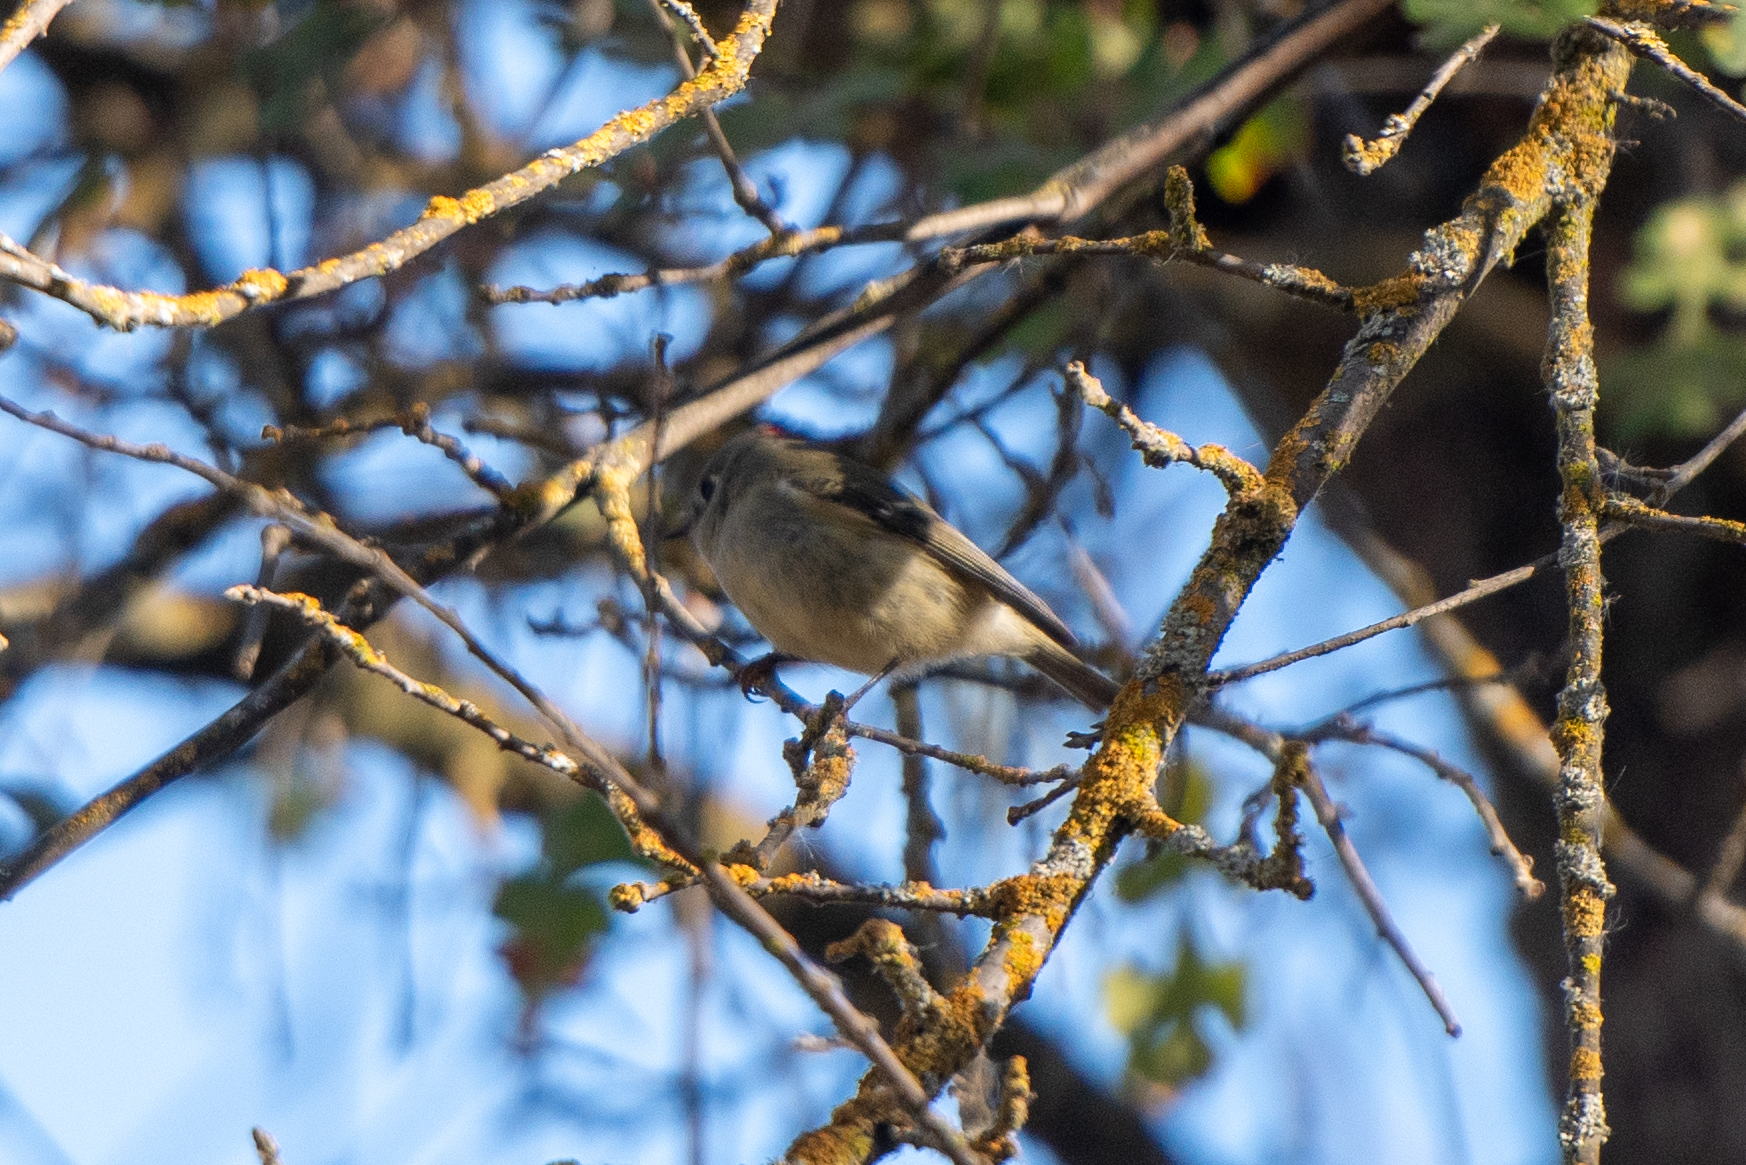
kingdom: Animalia
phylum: Chordata
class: Aves
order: Passeriformes
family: Regulidae
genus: Regulus
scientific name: Regulus calendula
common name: Ruby-crowned kinglet
